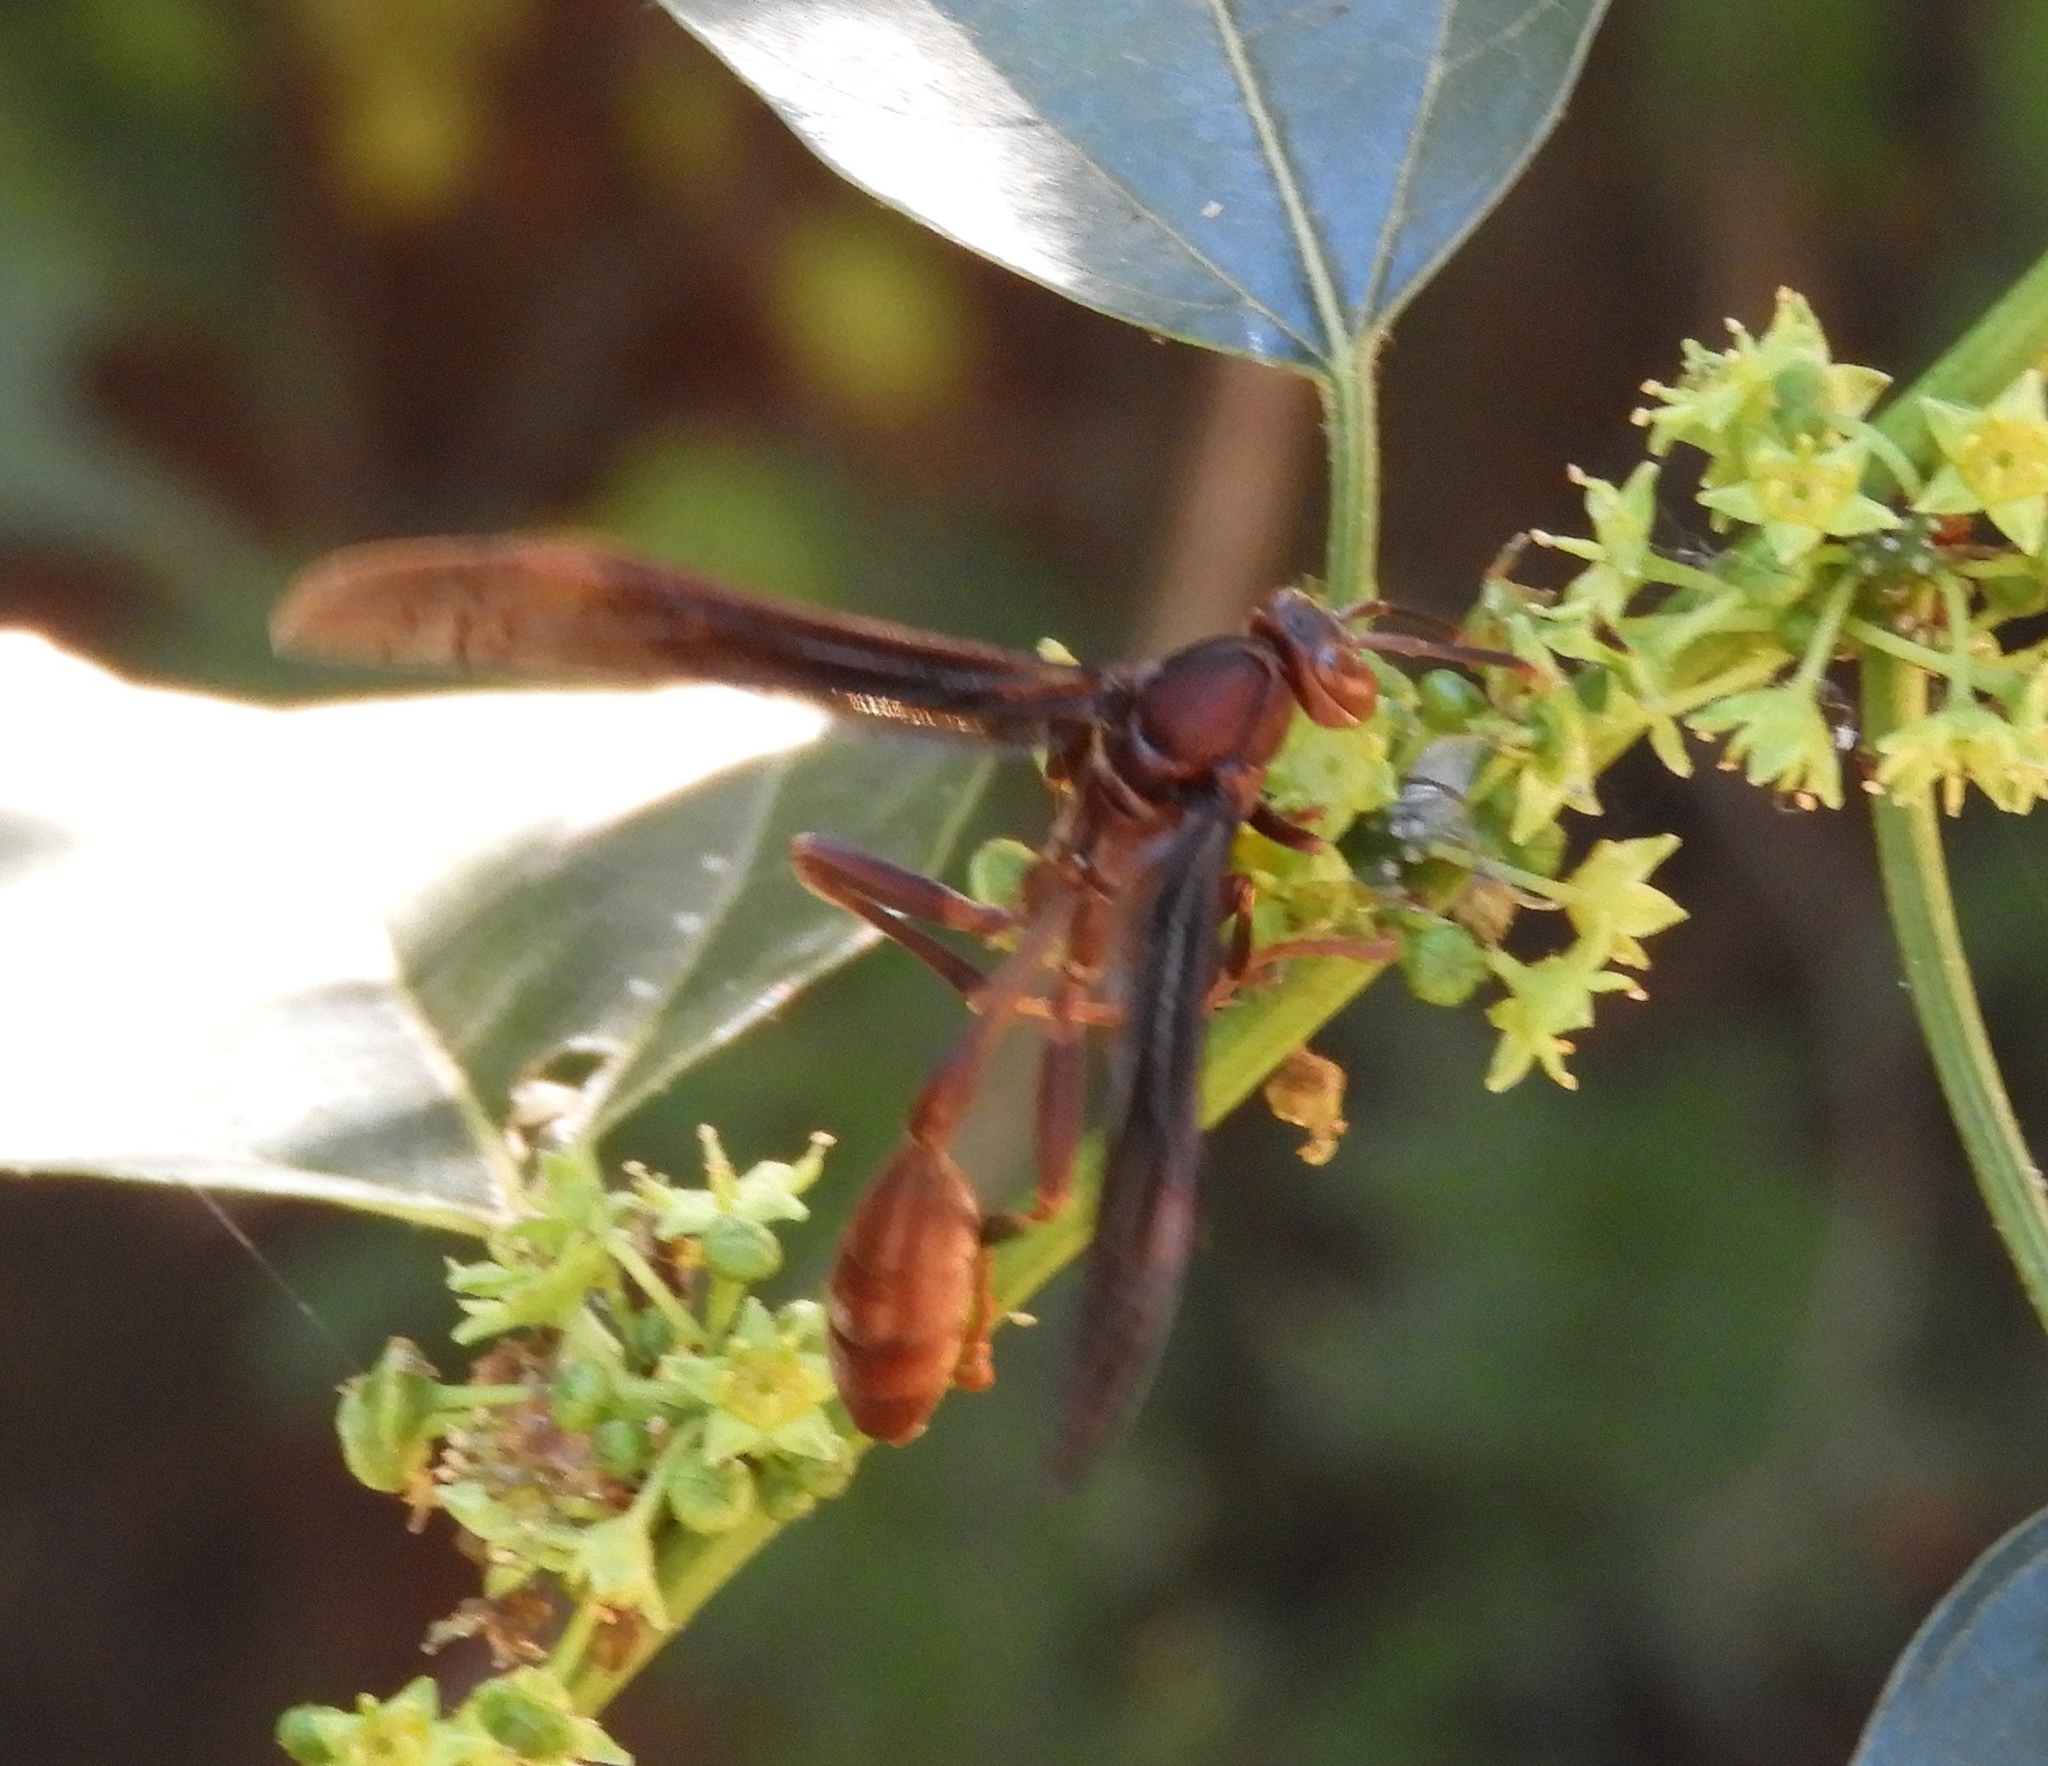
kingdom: Animalia
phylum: Arthropoda
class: Insecta
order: Hymenoptera
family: Vespidae
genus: Mischocyttarus
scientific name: Mischocyttarus melanarius
